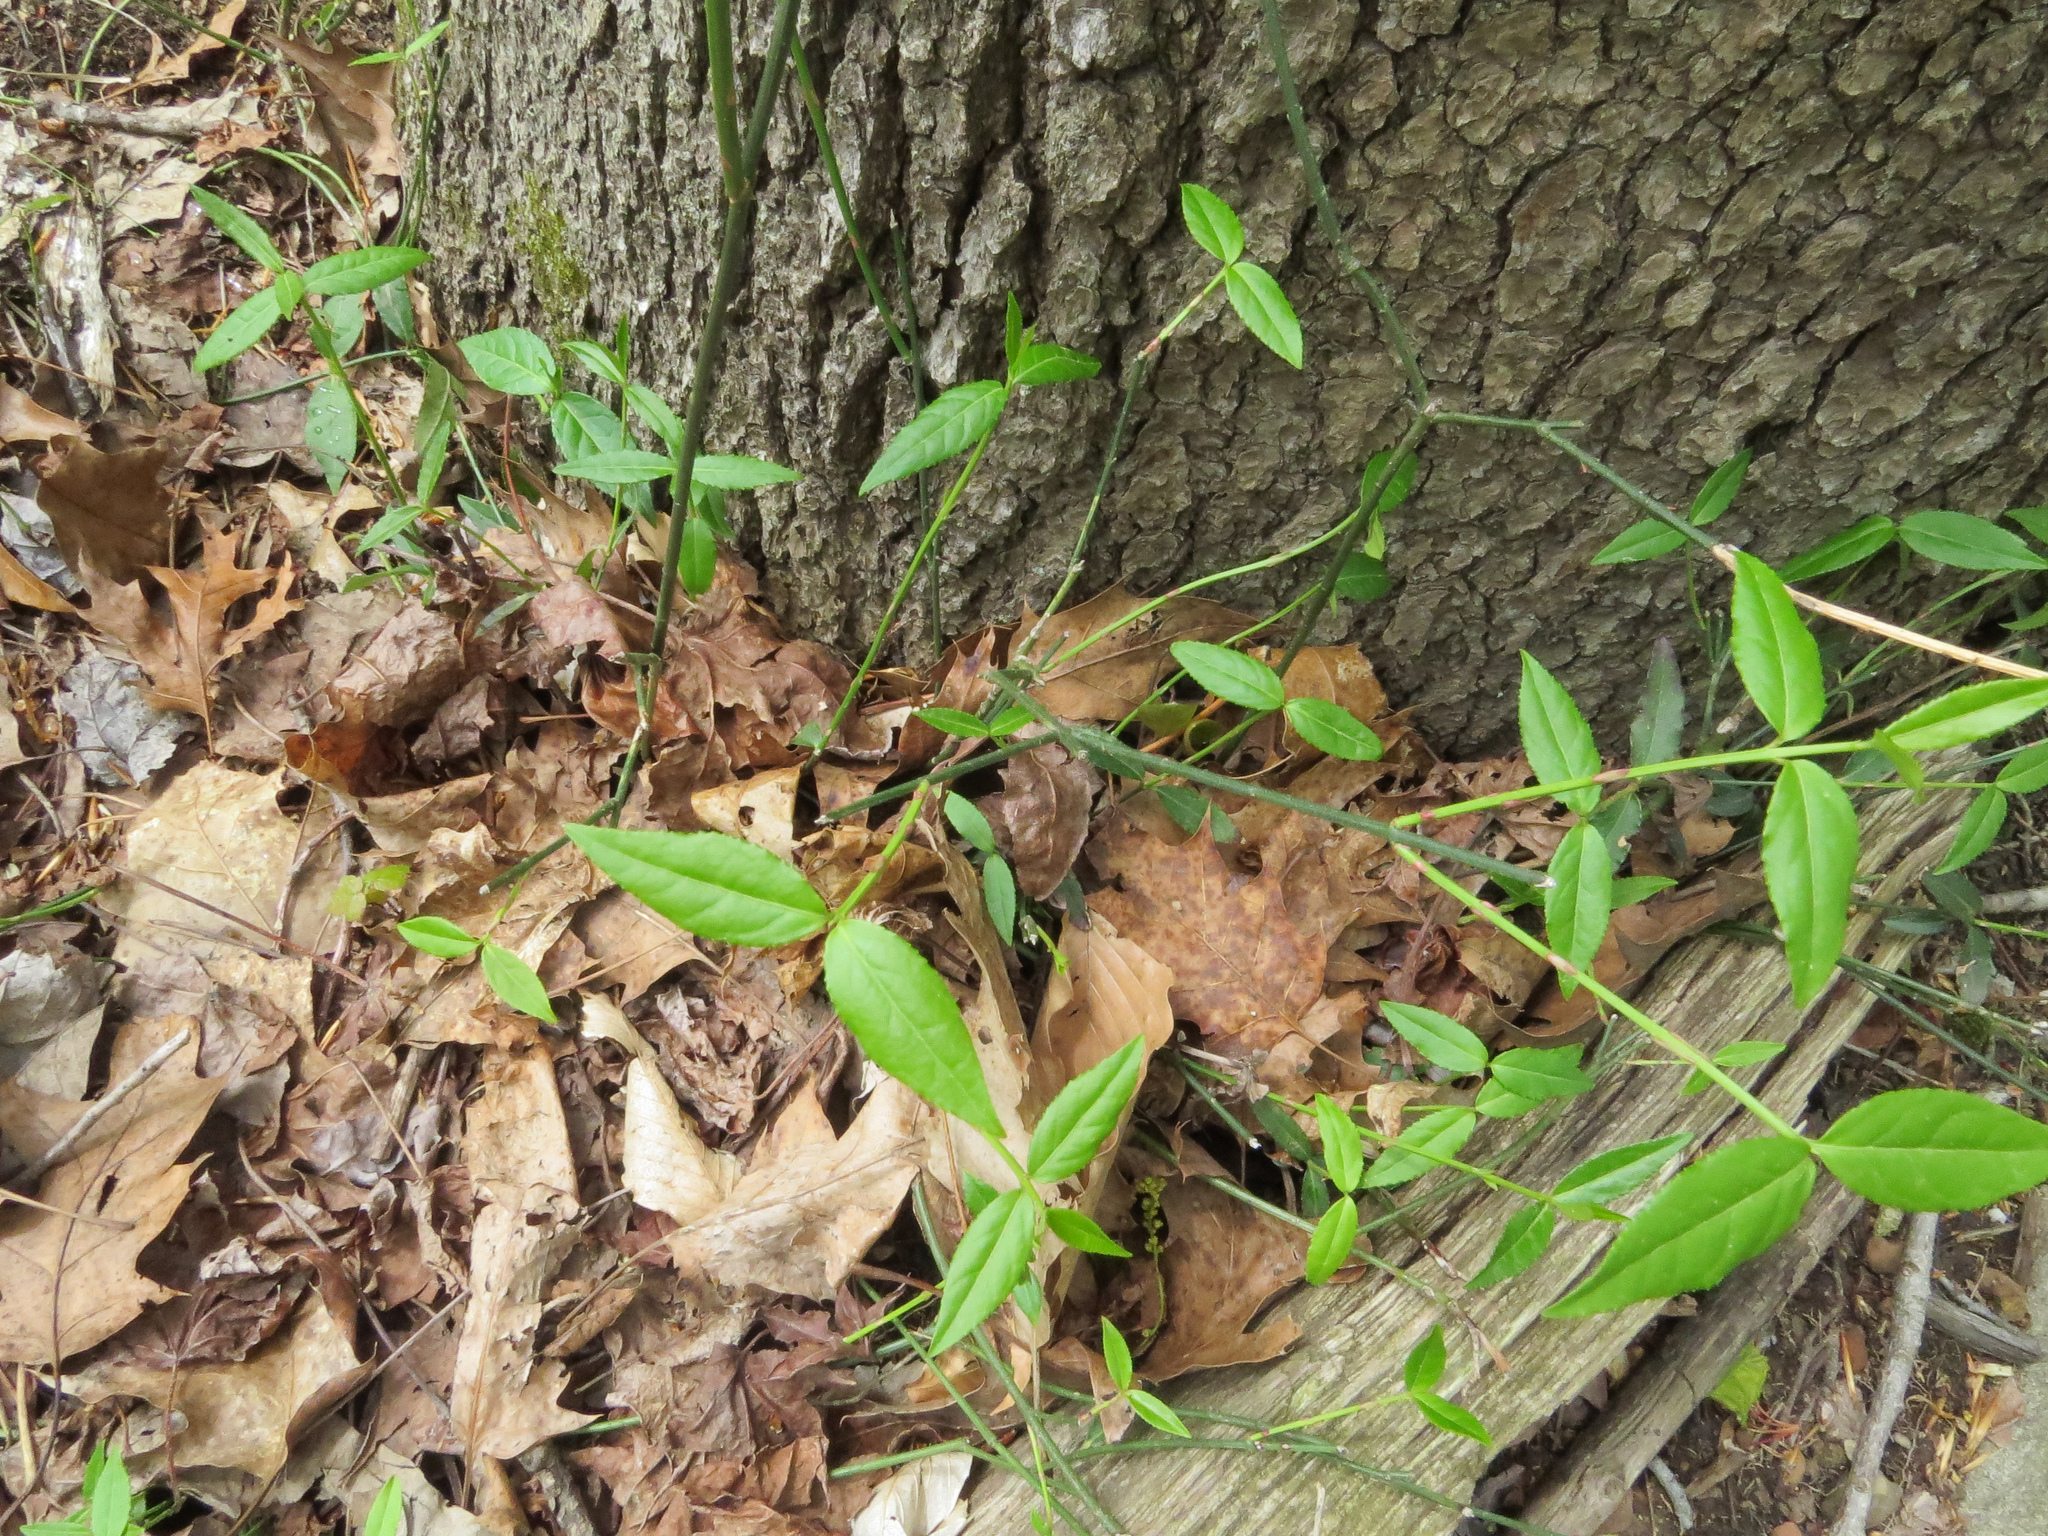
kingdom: Plantae
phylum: Tracheophyta
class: Magnoliopsida
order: Celastrales
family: Celastraceae
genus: Euonymus
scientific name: Euonymus fortunei
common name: Climbing euonymus
